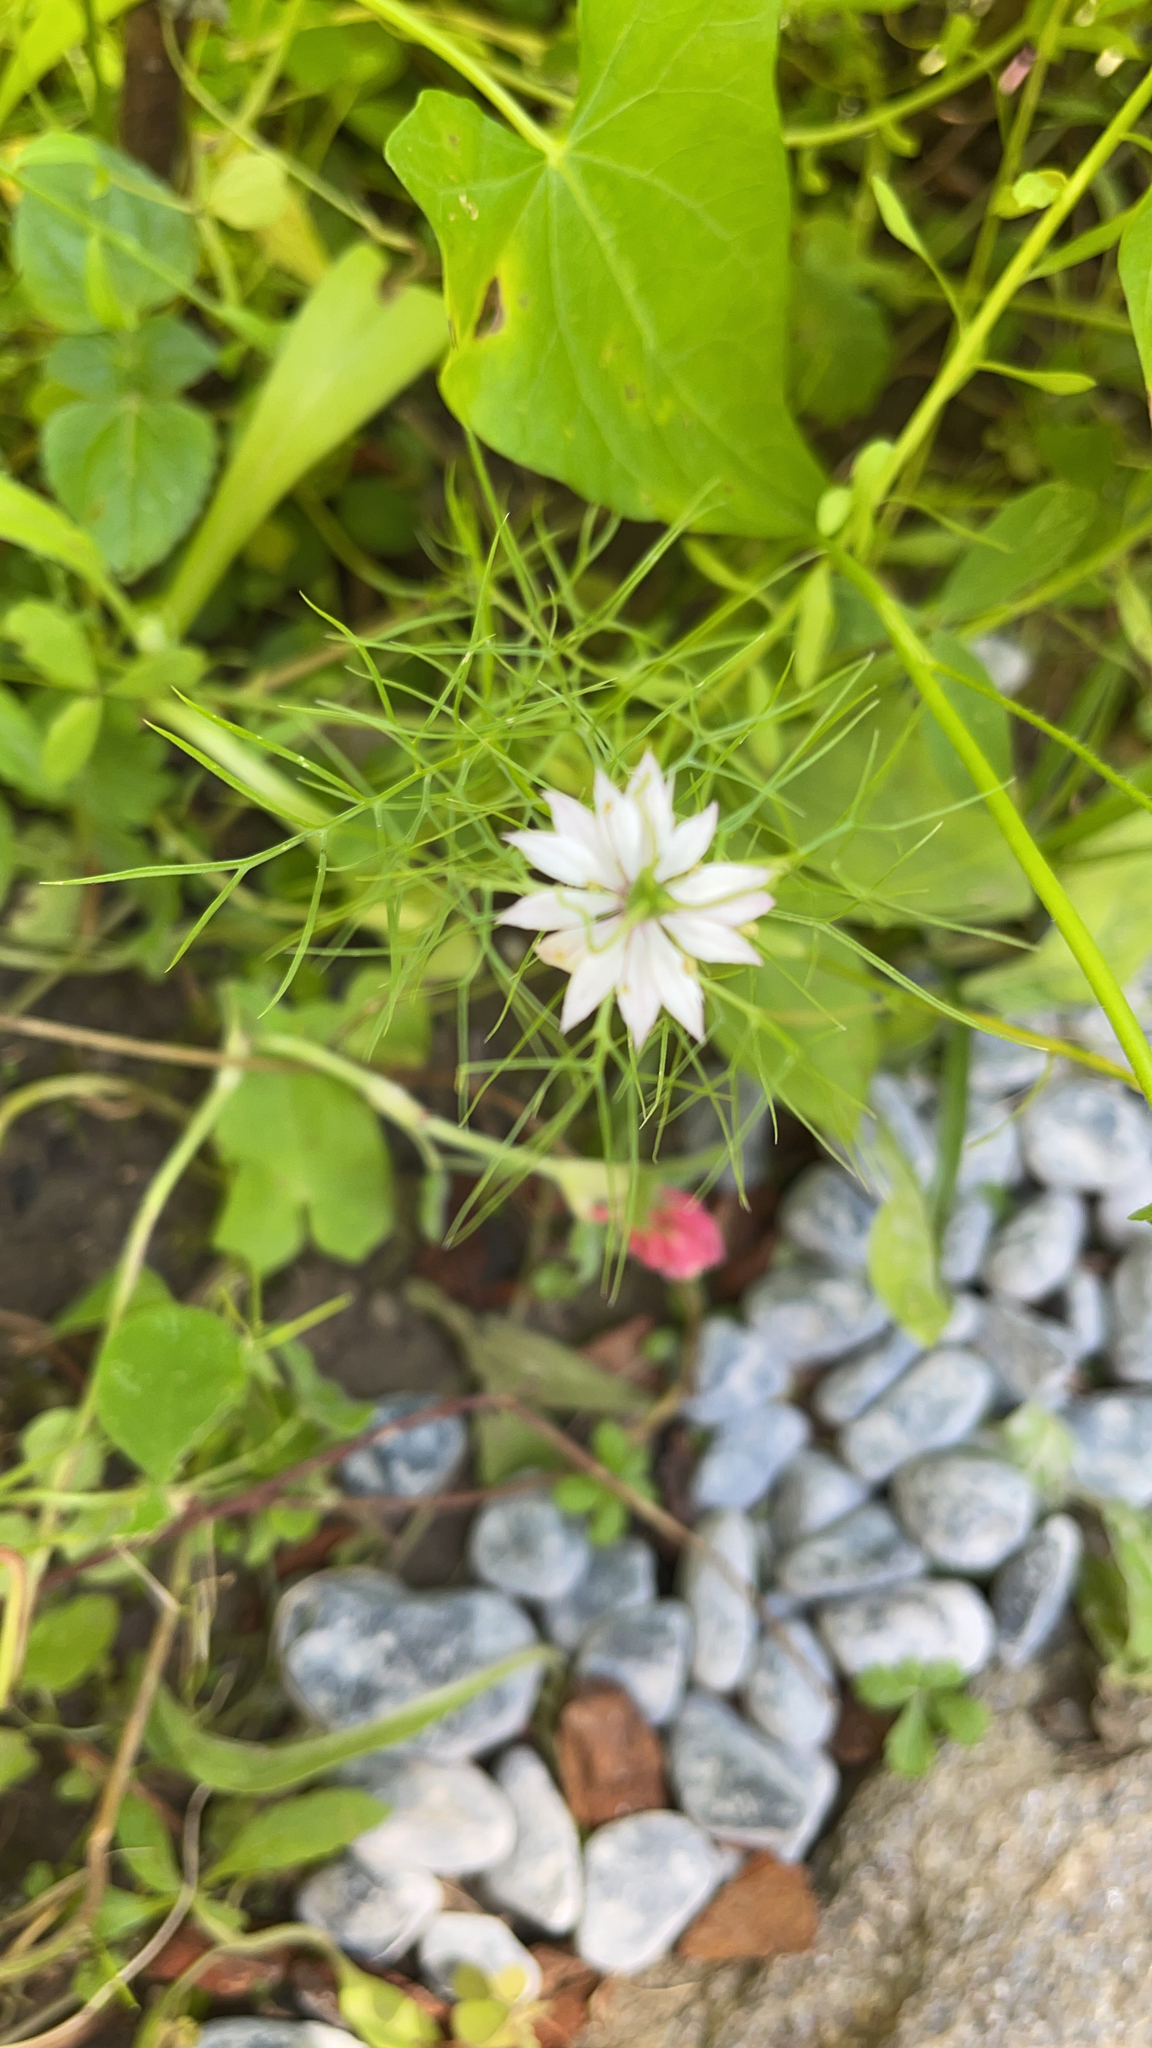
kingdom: Plantae
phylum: Tracheophyta
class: Magnoliopsida
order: Ranunculales
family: Ranunculaceae
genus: Nigella
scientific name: Nigella damascena
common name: Love-in-a-mist
